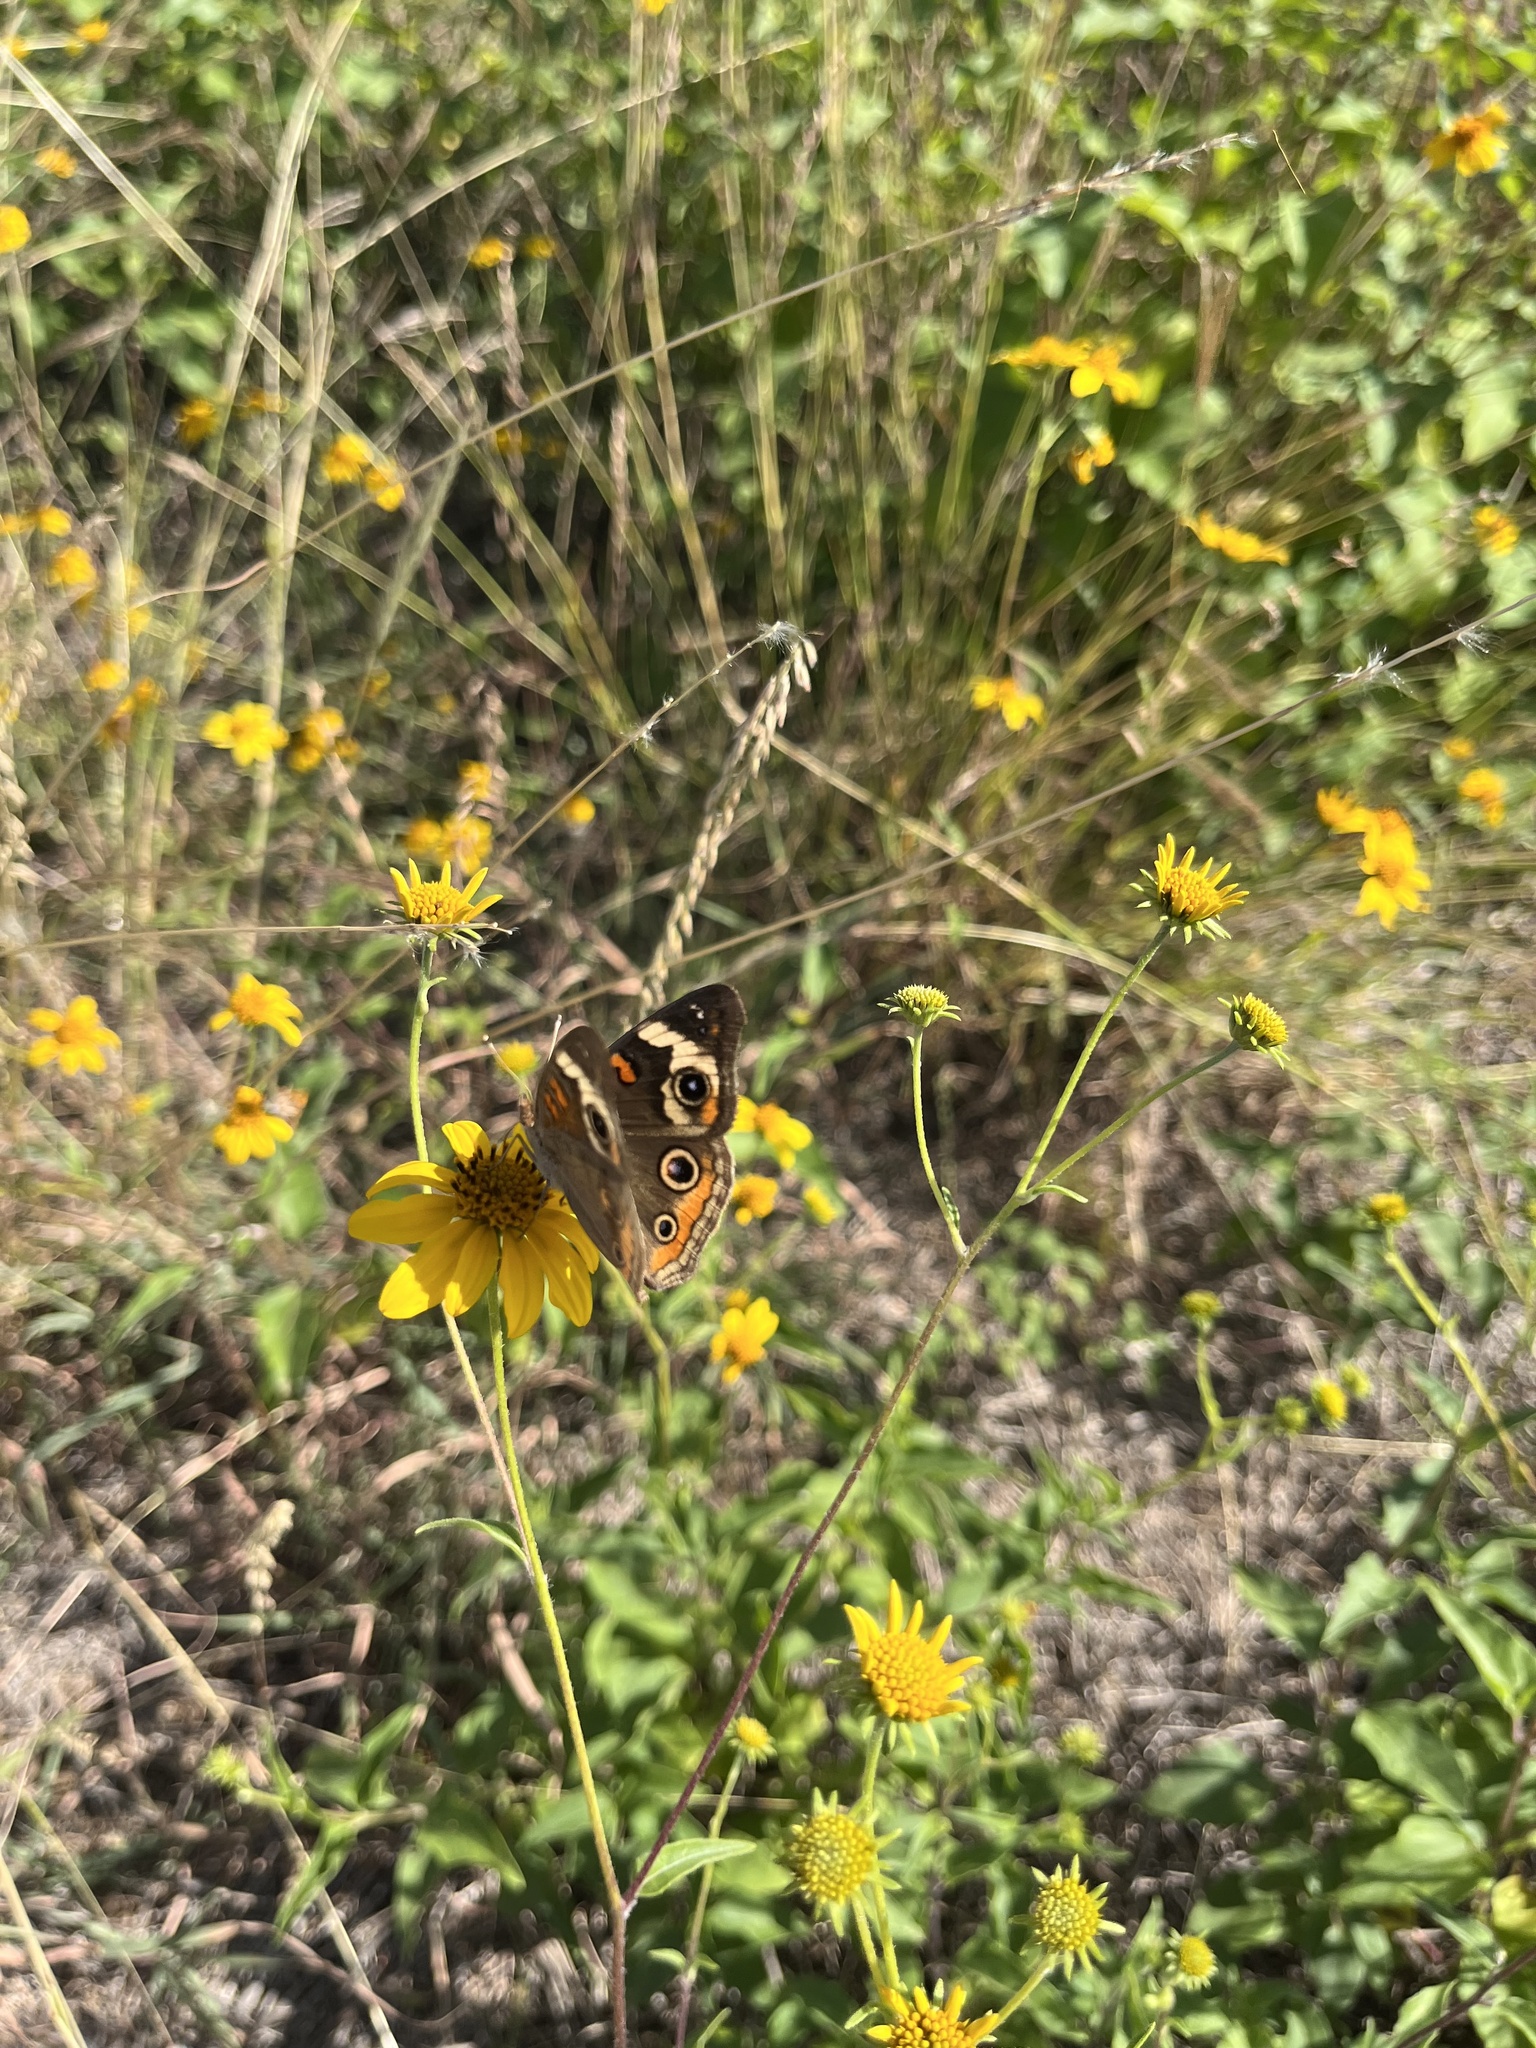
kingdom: Animalia
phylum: Arthropoda
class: Insecta
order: Lepidoptera
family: Nymphalidae
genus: Junonia
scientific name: Junonia coenia
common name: Common buckeye
